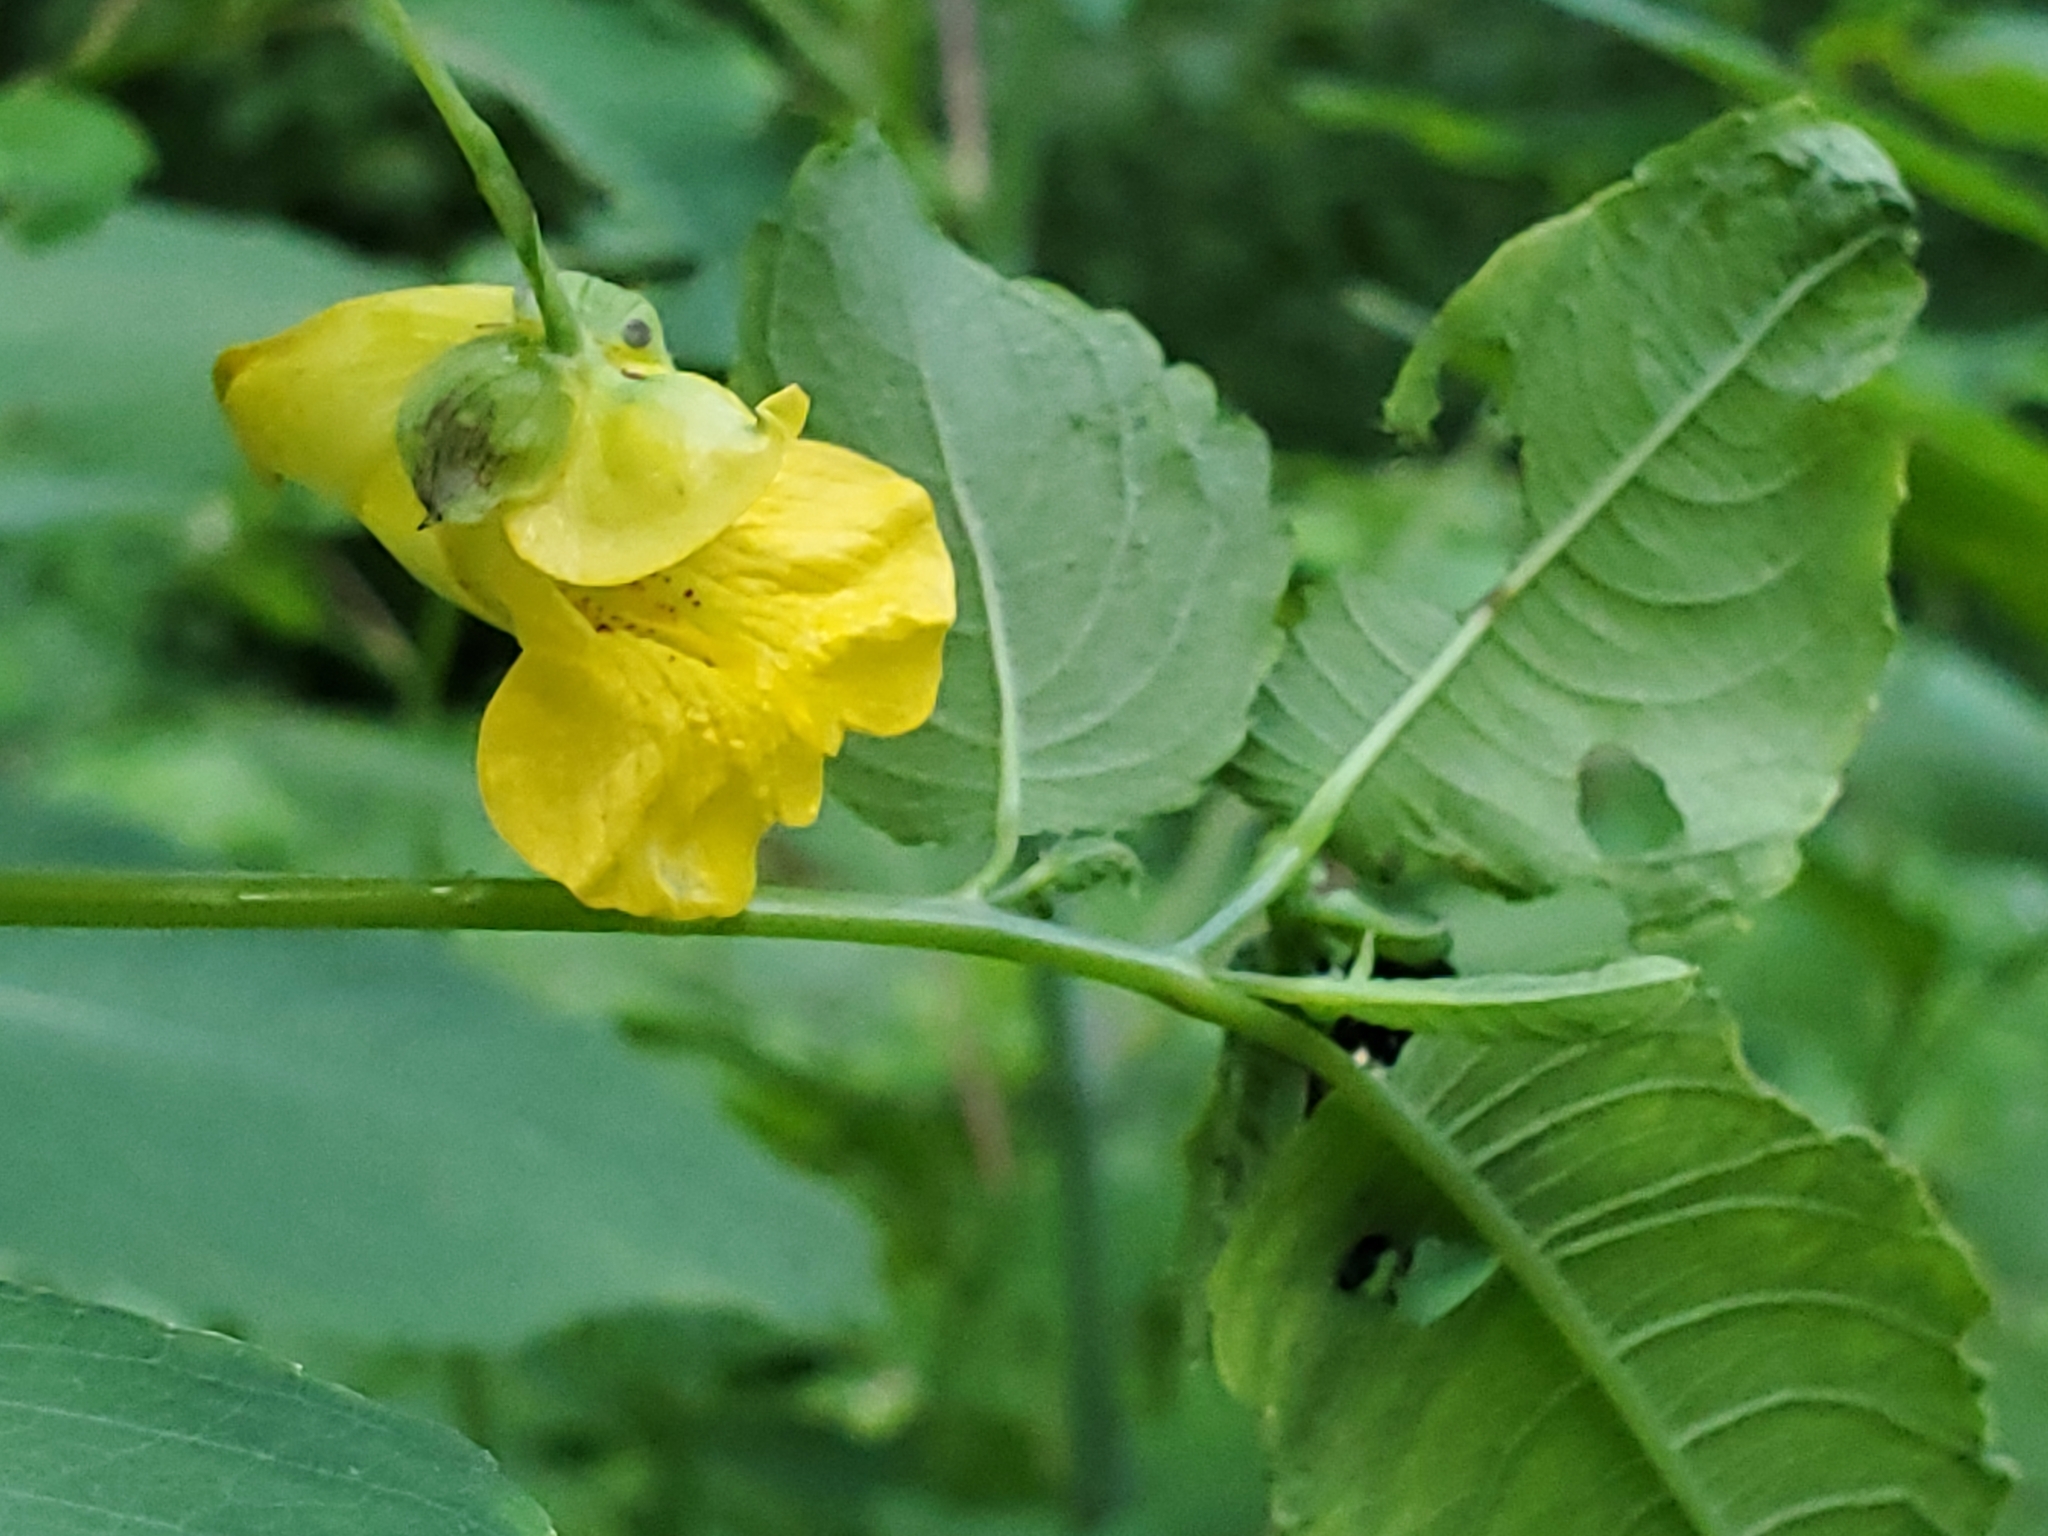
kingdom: Plantae
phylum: Tracheophyta
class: Magnoliopsida
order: Ericales
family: Balsaminaceae
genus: Impatiens
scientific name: Impatiens pallida
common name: Pale snapweed
